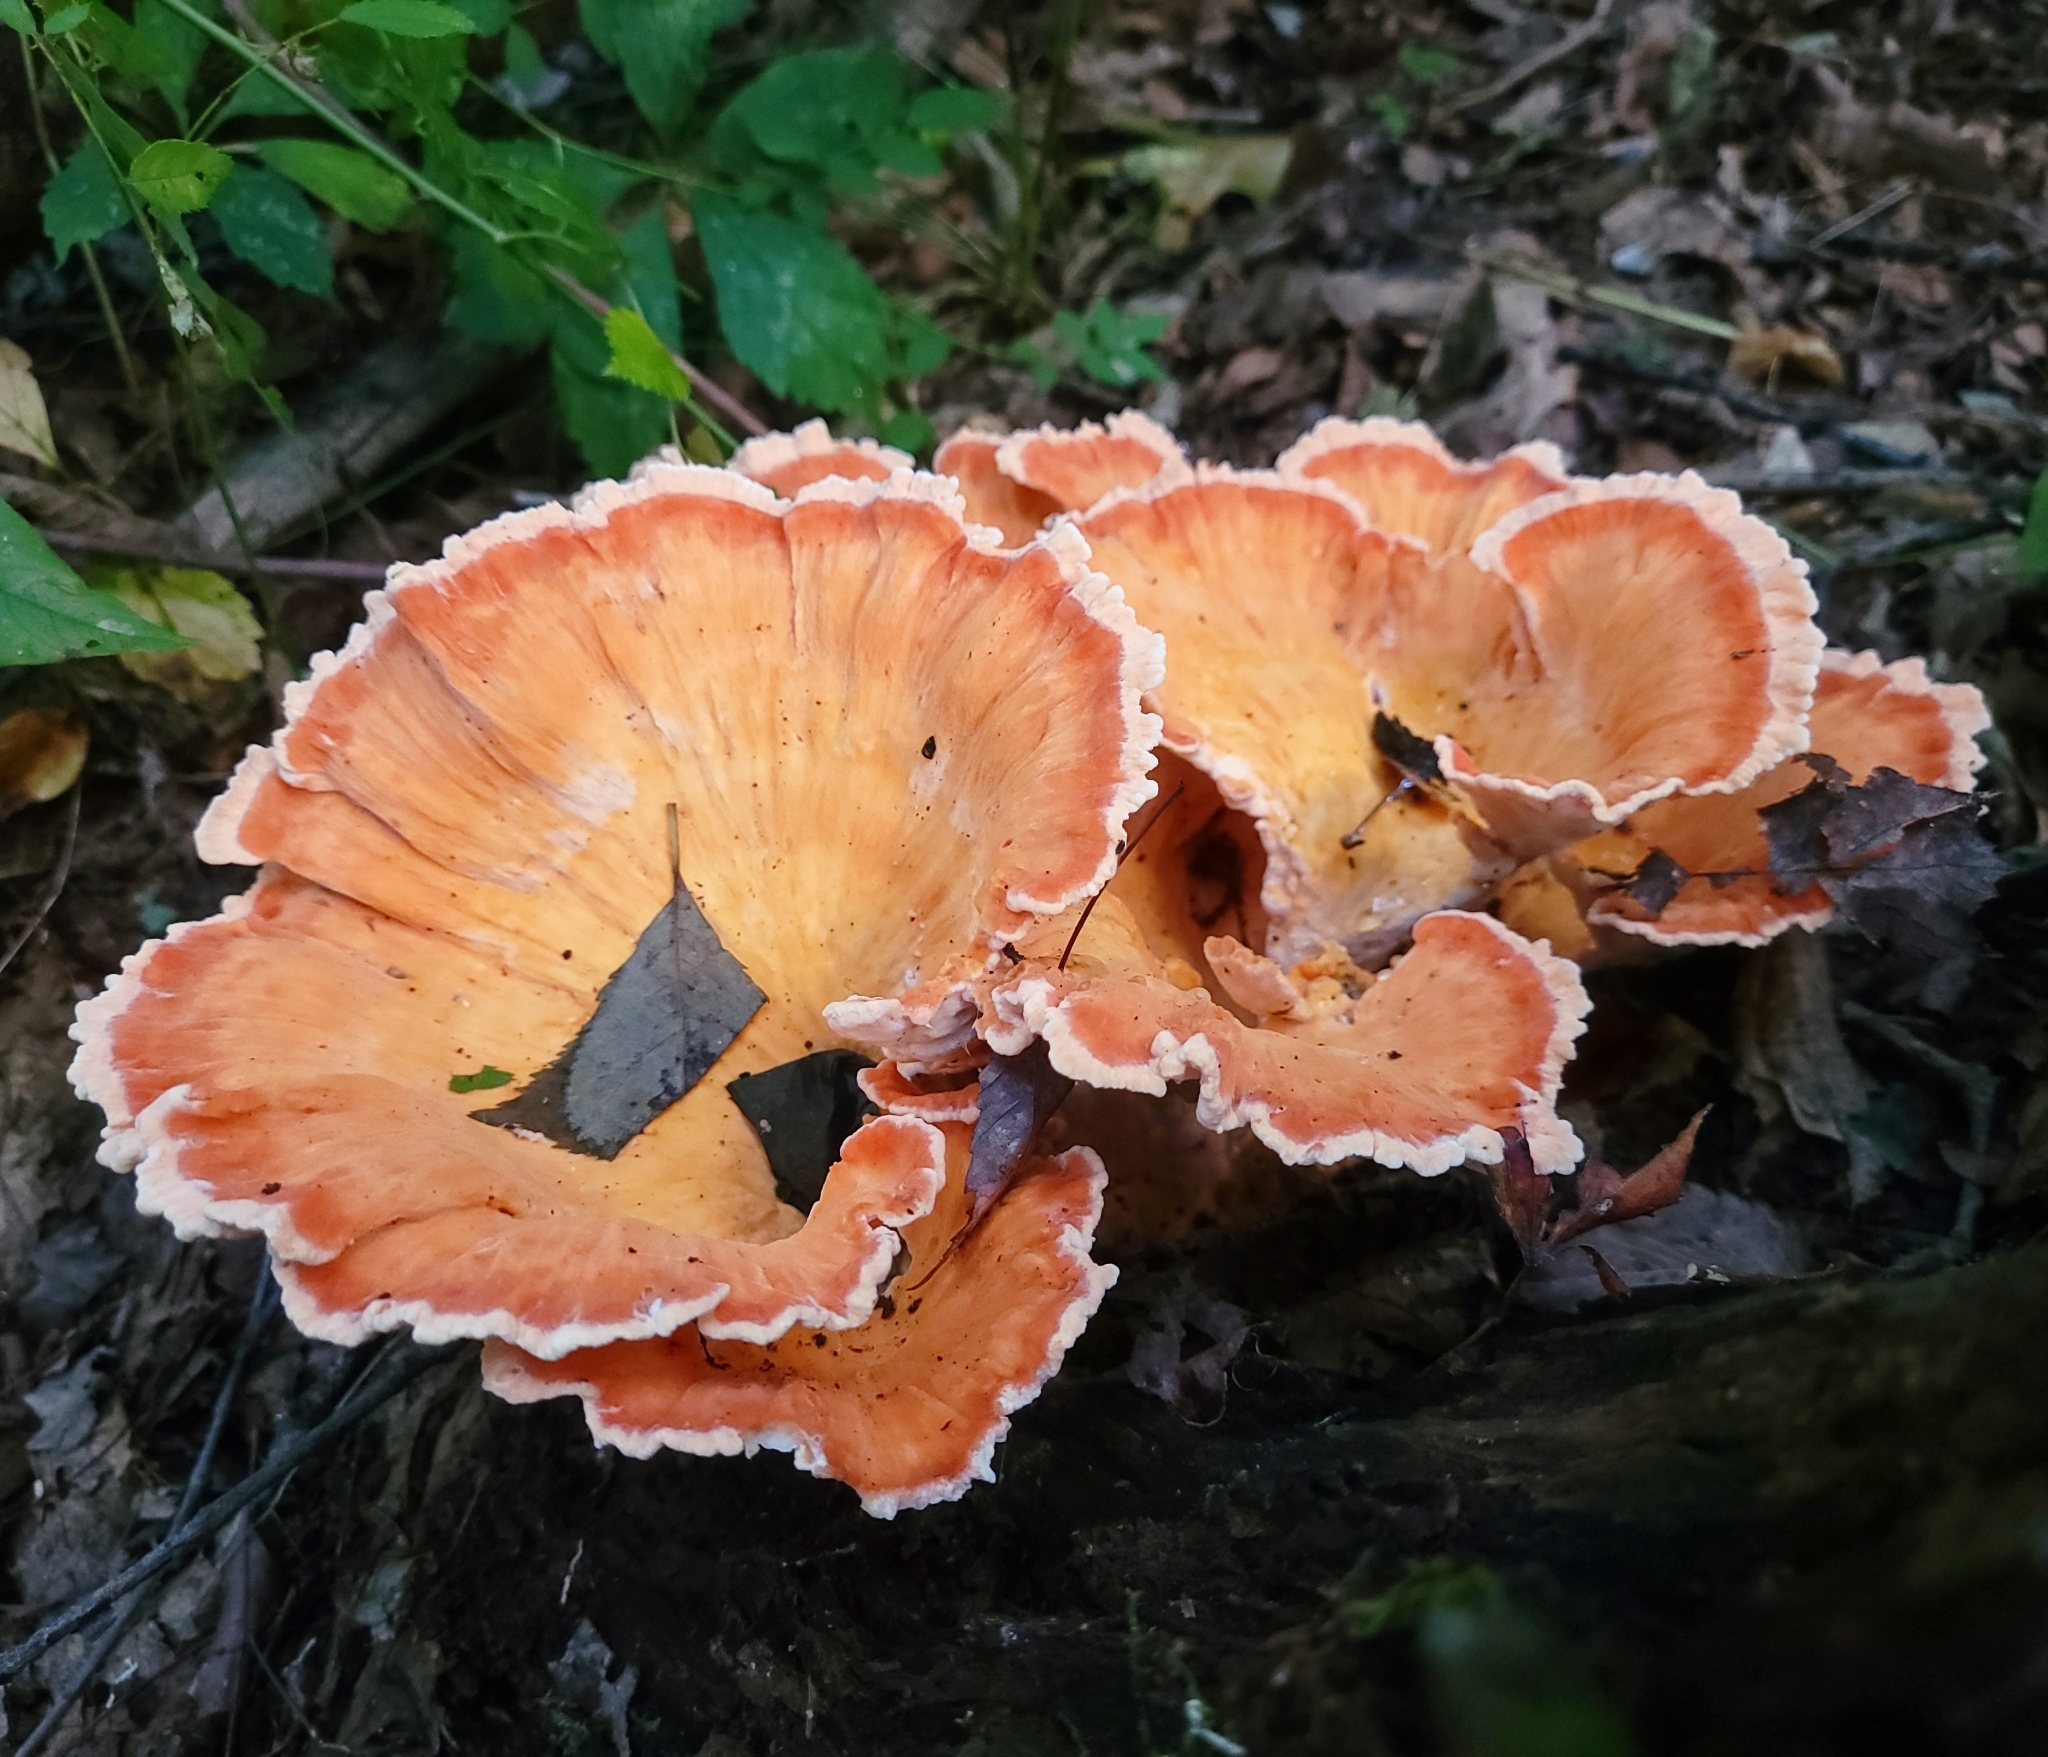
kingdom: Fungi
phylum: Basidiomycota
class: Agaricomycetes
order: Polyporales
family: Laetiporaceae
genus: Laetiporus
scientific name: Laetiporus sulphureus
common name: Chicken of the woods
